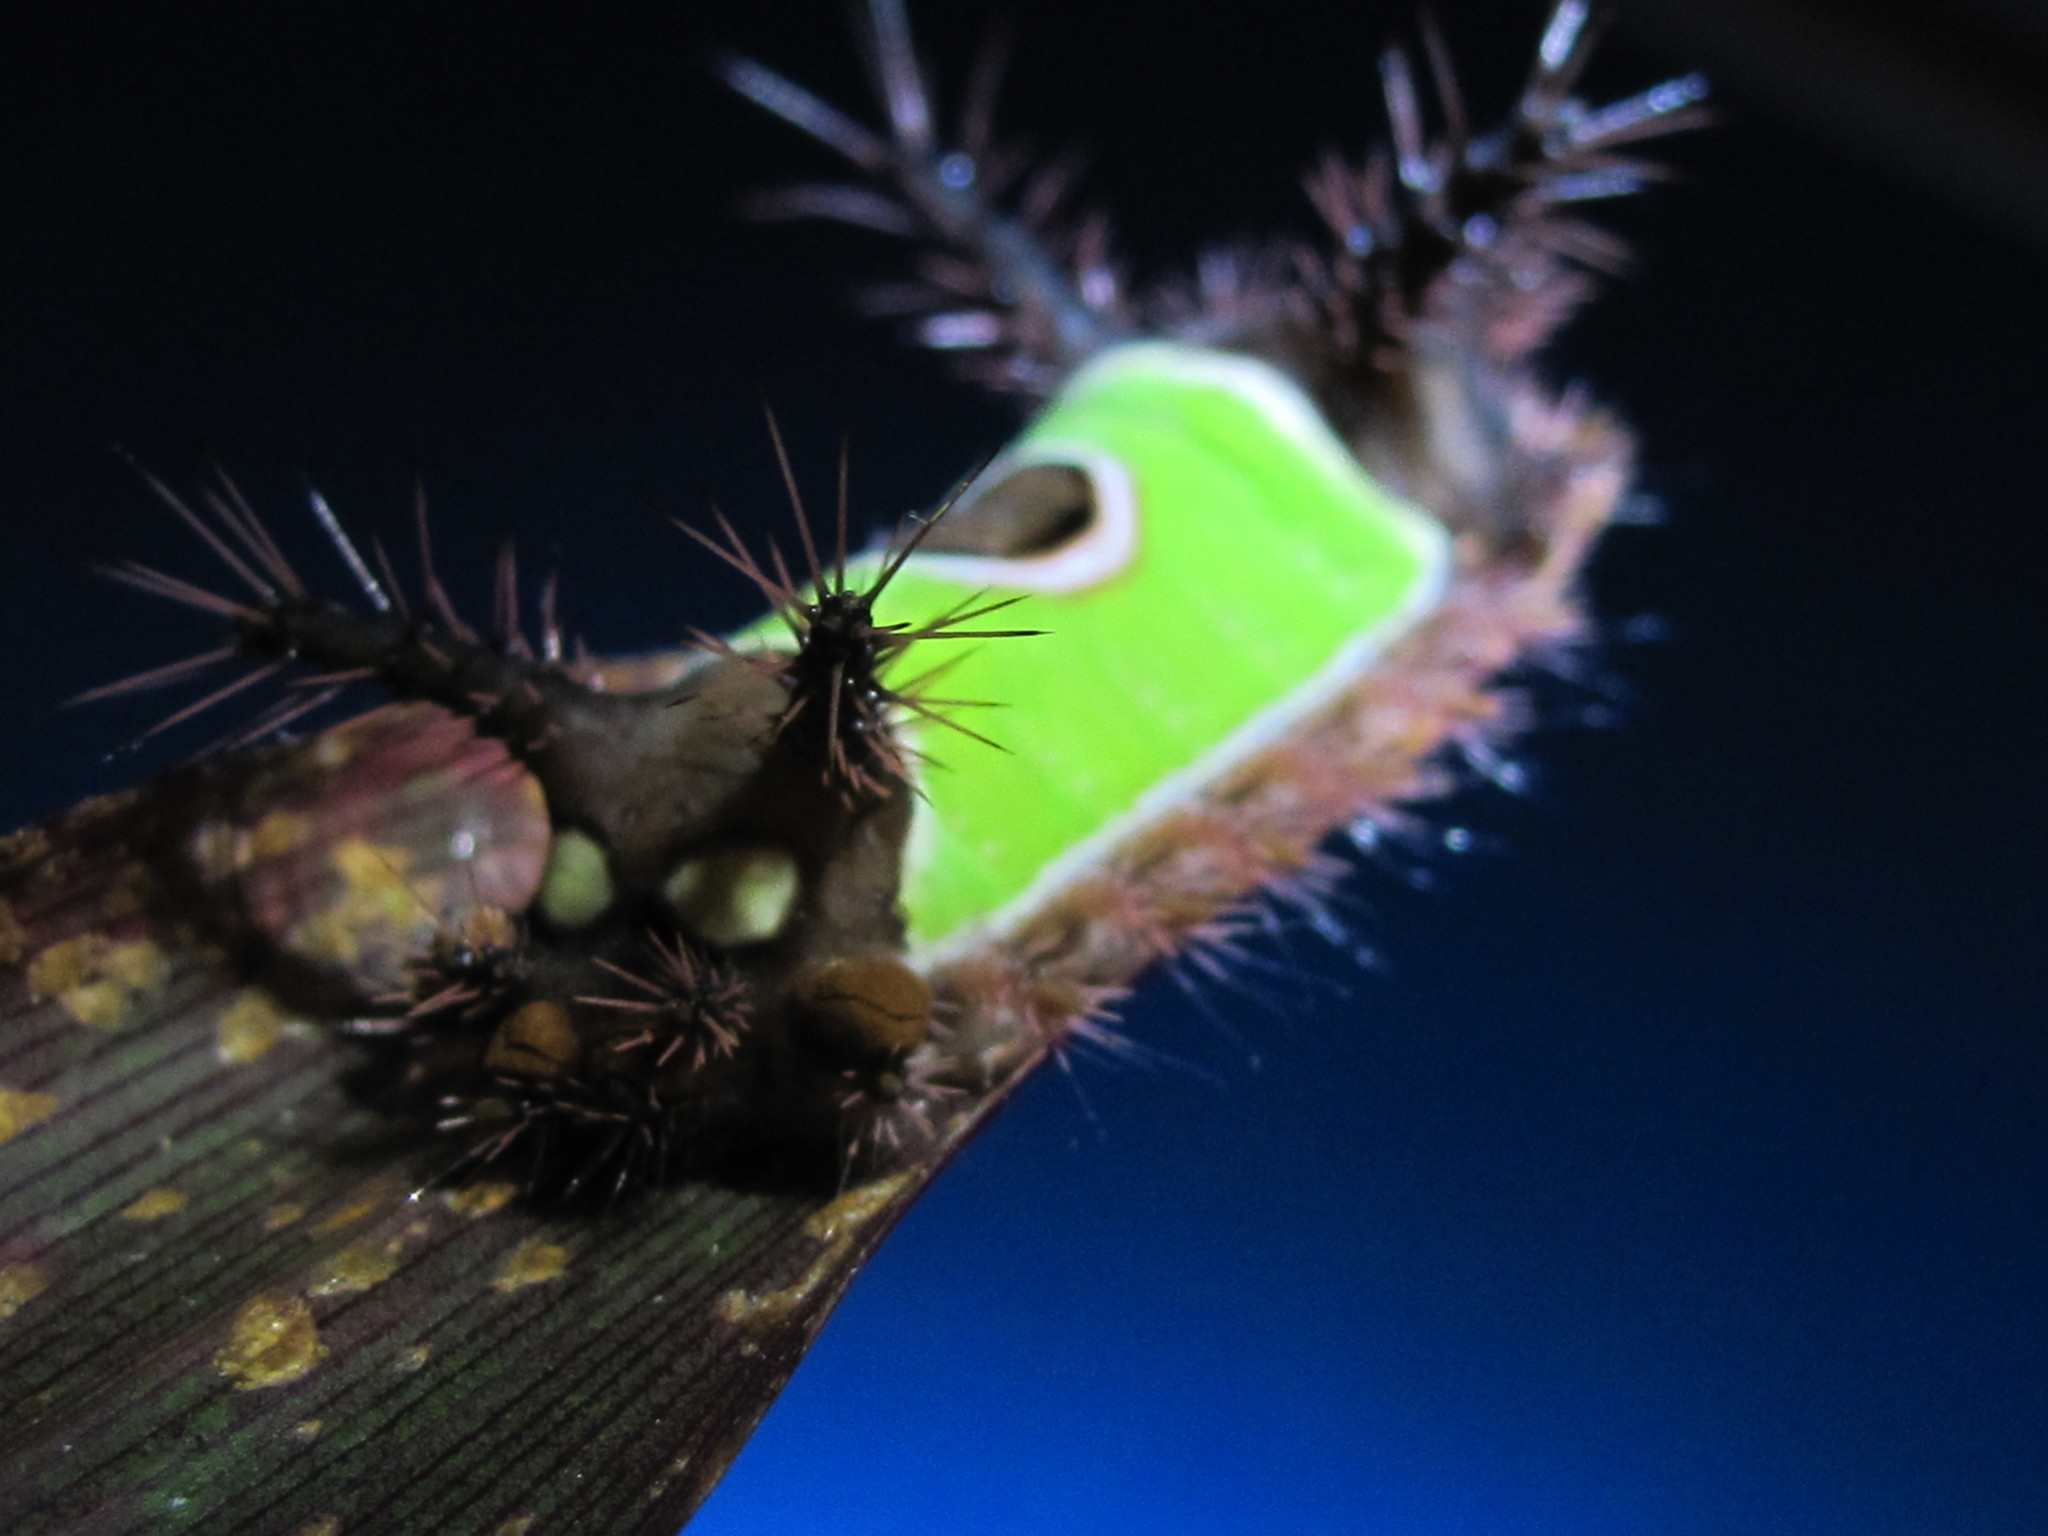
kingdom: Animalia
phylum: Arthropoda
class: Insecta
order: Lepidoptera
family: Limacodidae
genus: Acharia
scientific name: Acharia hyperoche
